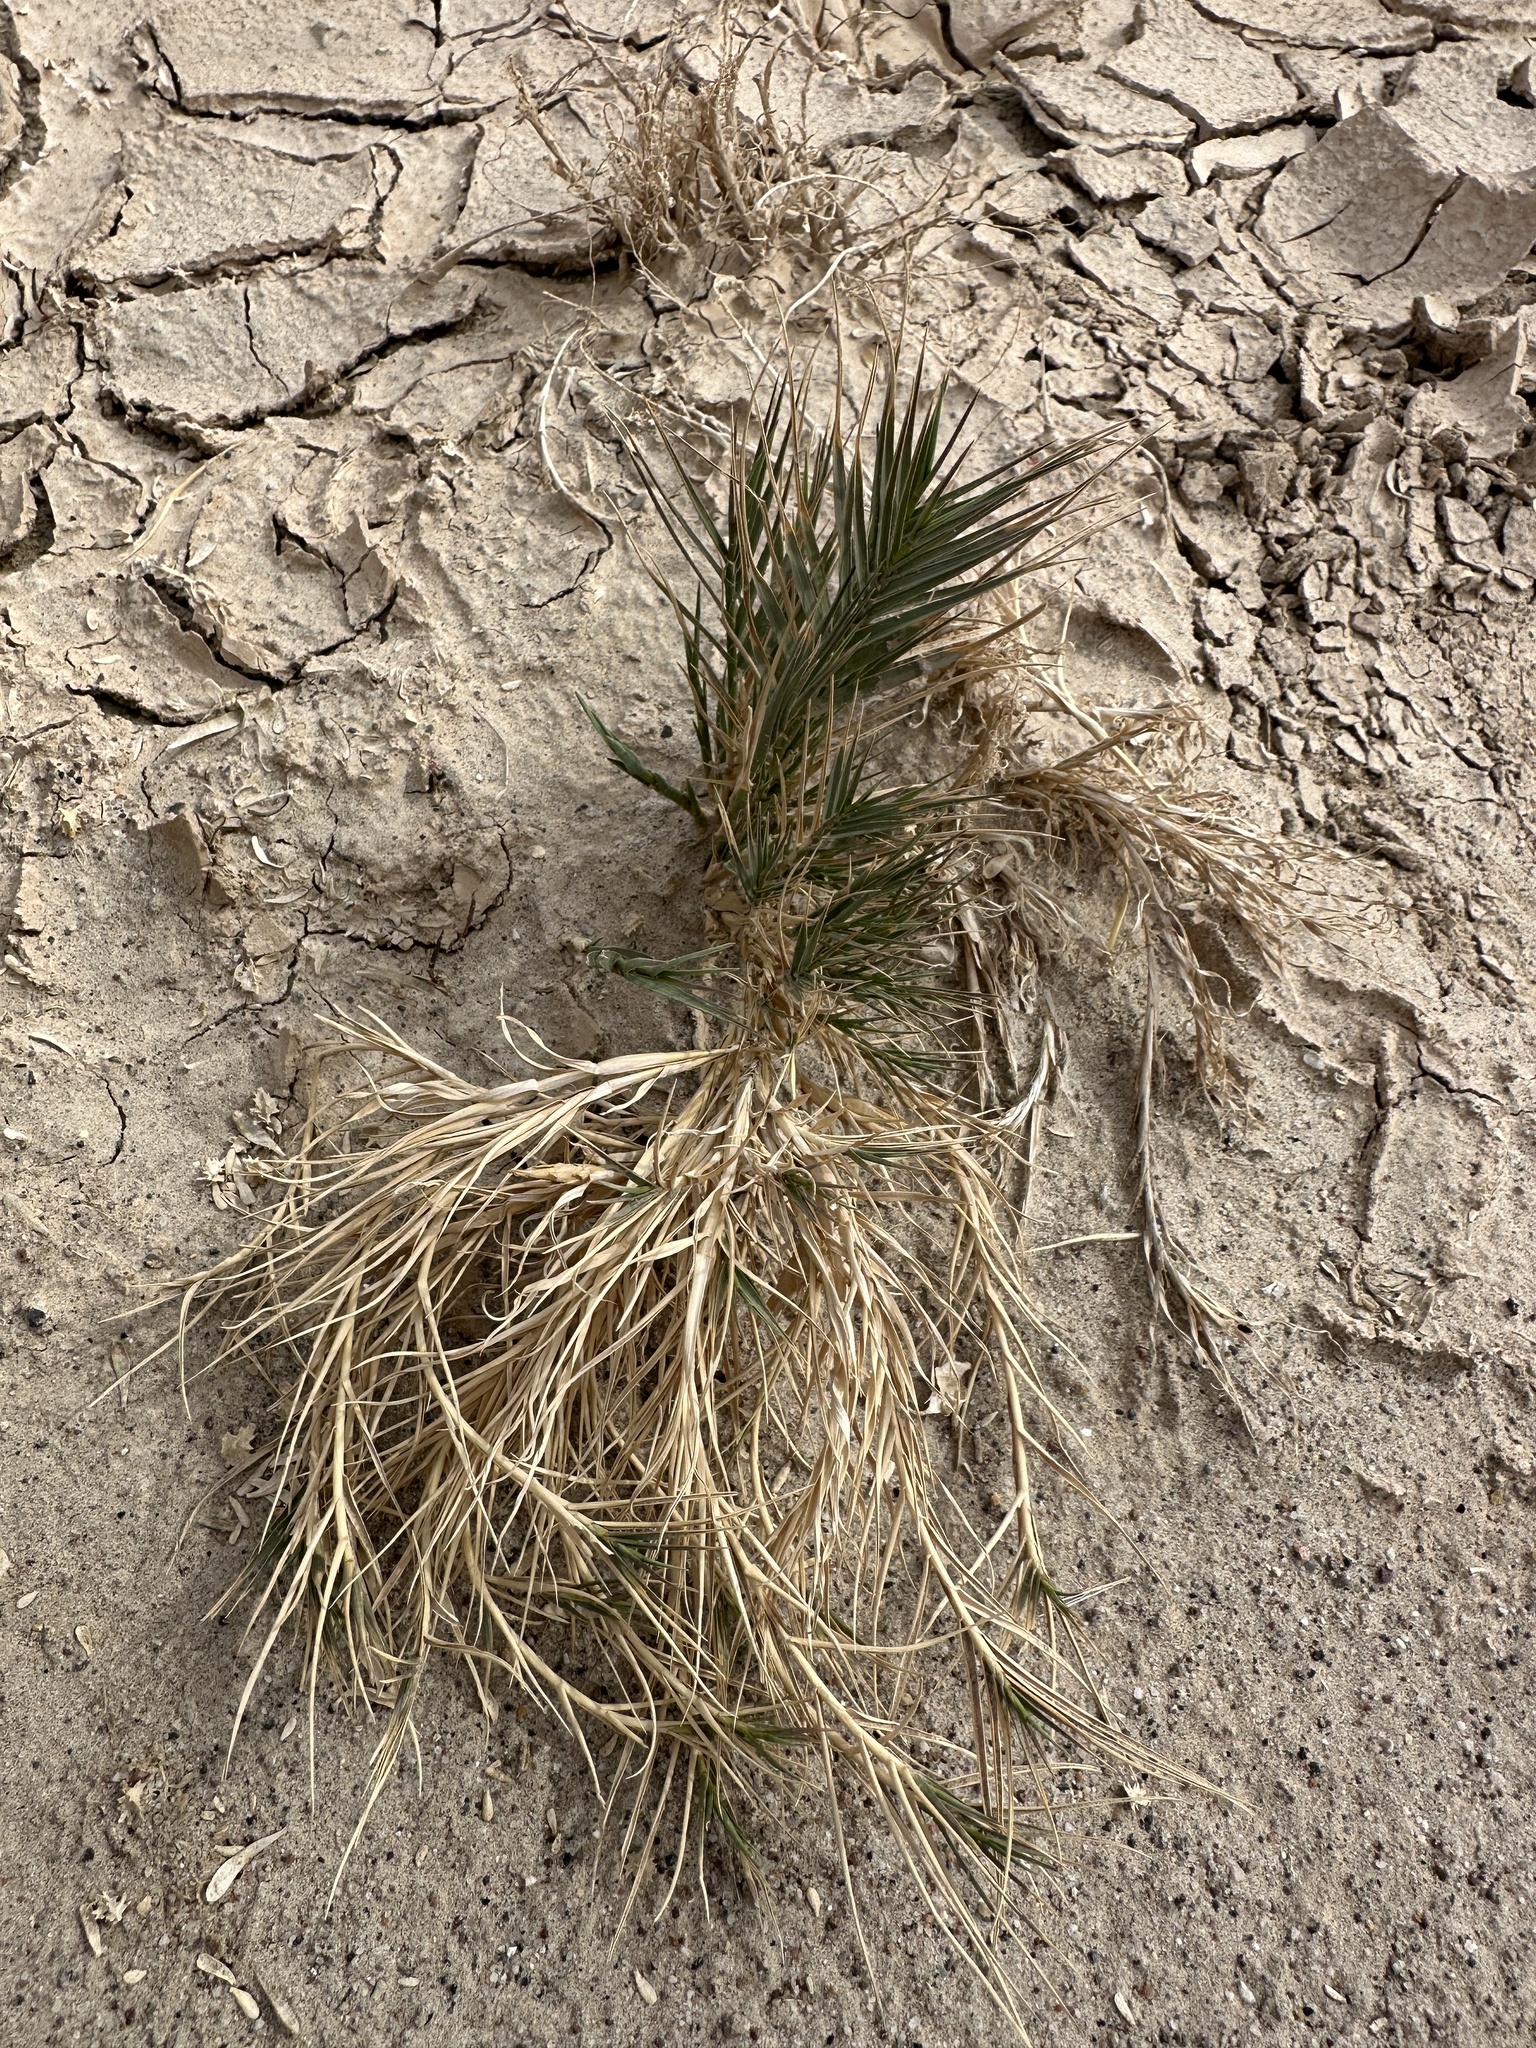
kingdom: Plantae
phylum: Tracheophyta
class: Liliopsida
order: Poales
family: Poaceae
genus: Distichlis
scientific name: Distichlis spicata
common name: Saltgrass
